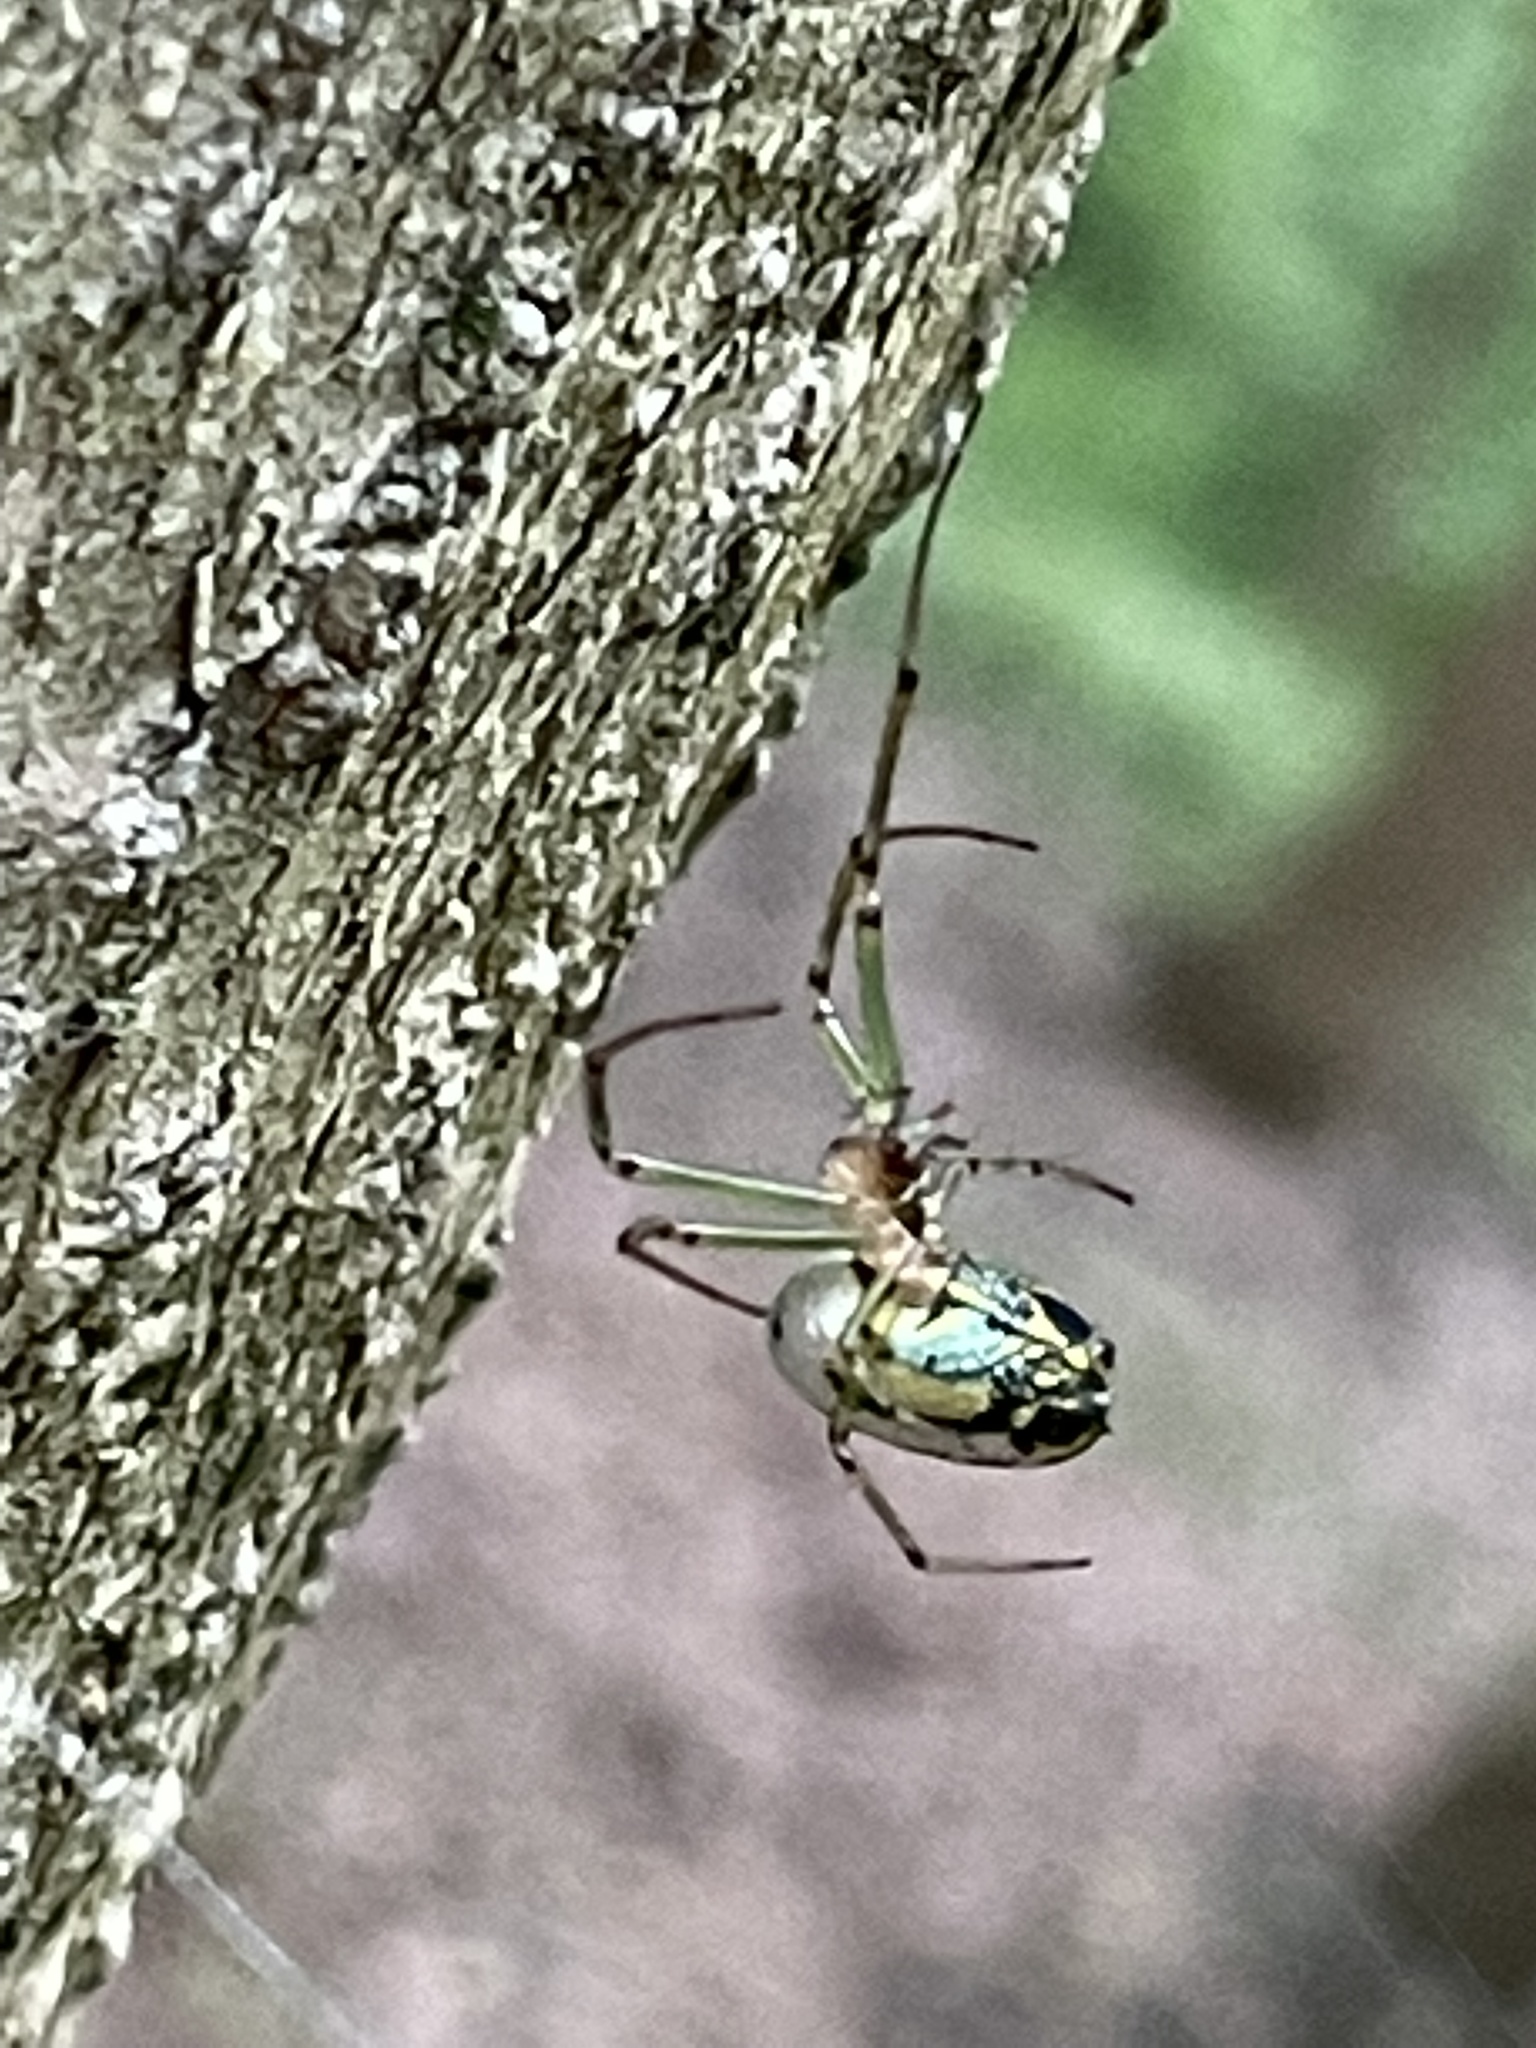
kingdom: Animalia
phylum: Arthropoda
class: Arachnida
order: Araneae
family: Tetragnathidae
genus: Leucauge
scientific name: Leucauge venusta
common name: Longjawed orb weavers
